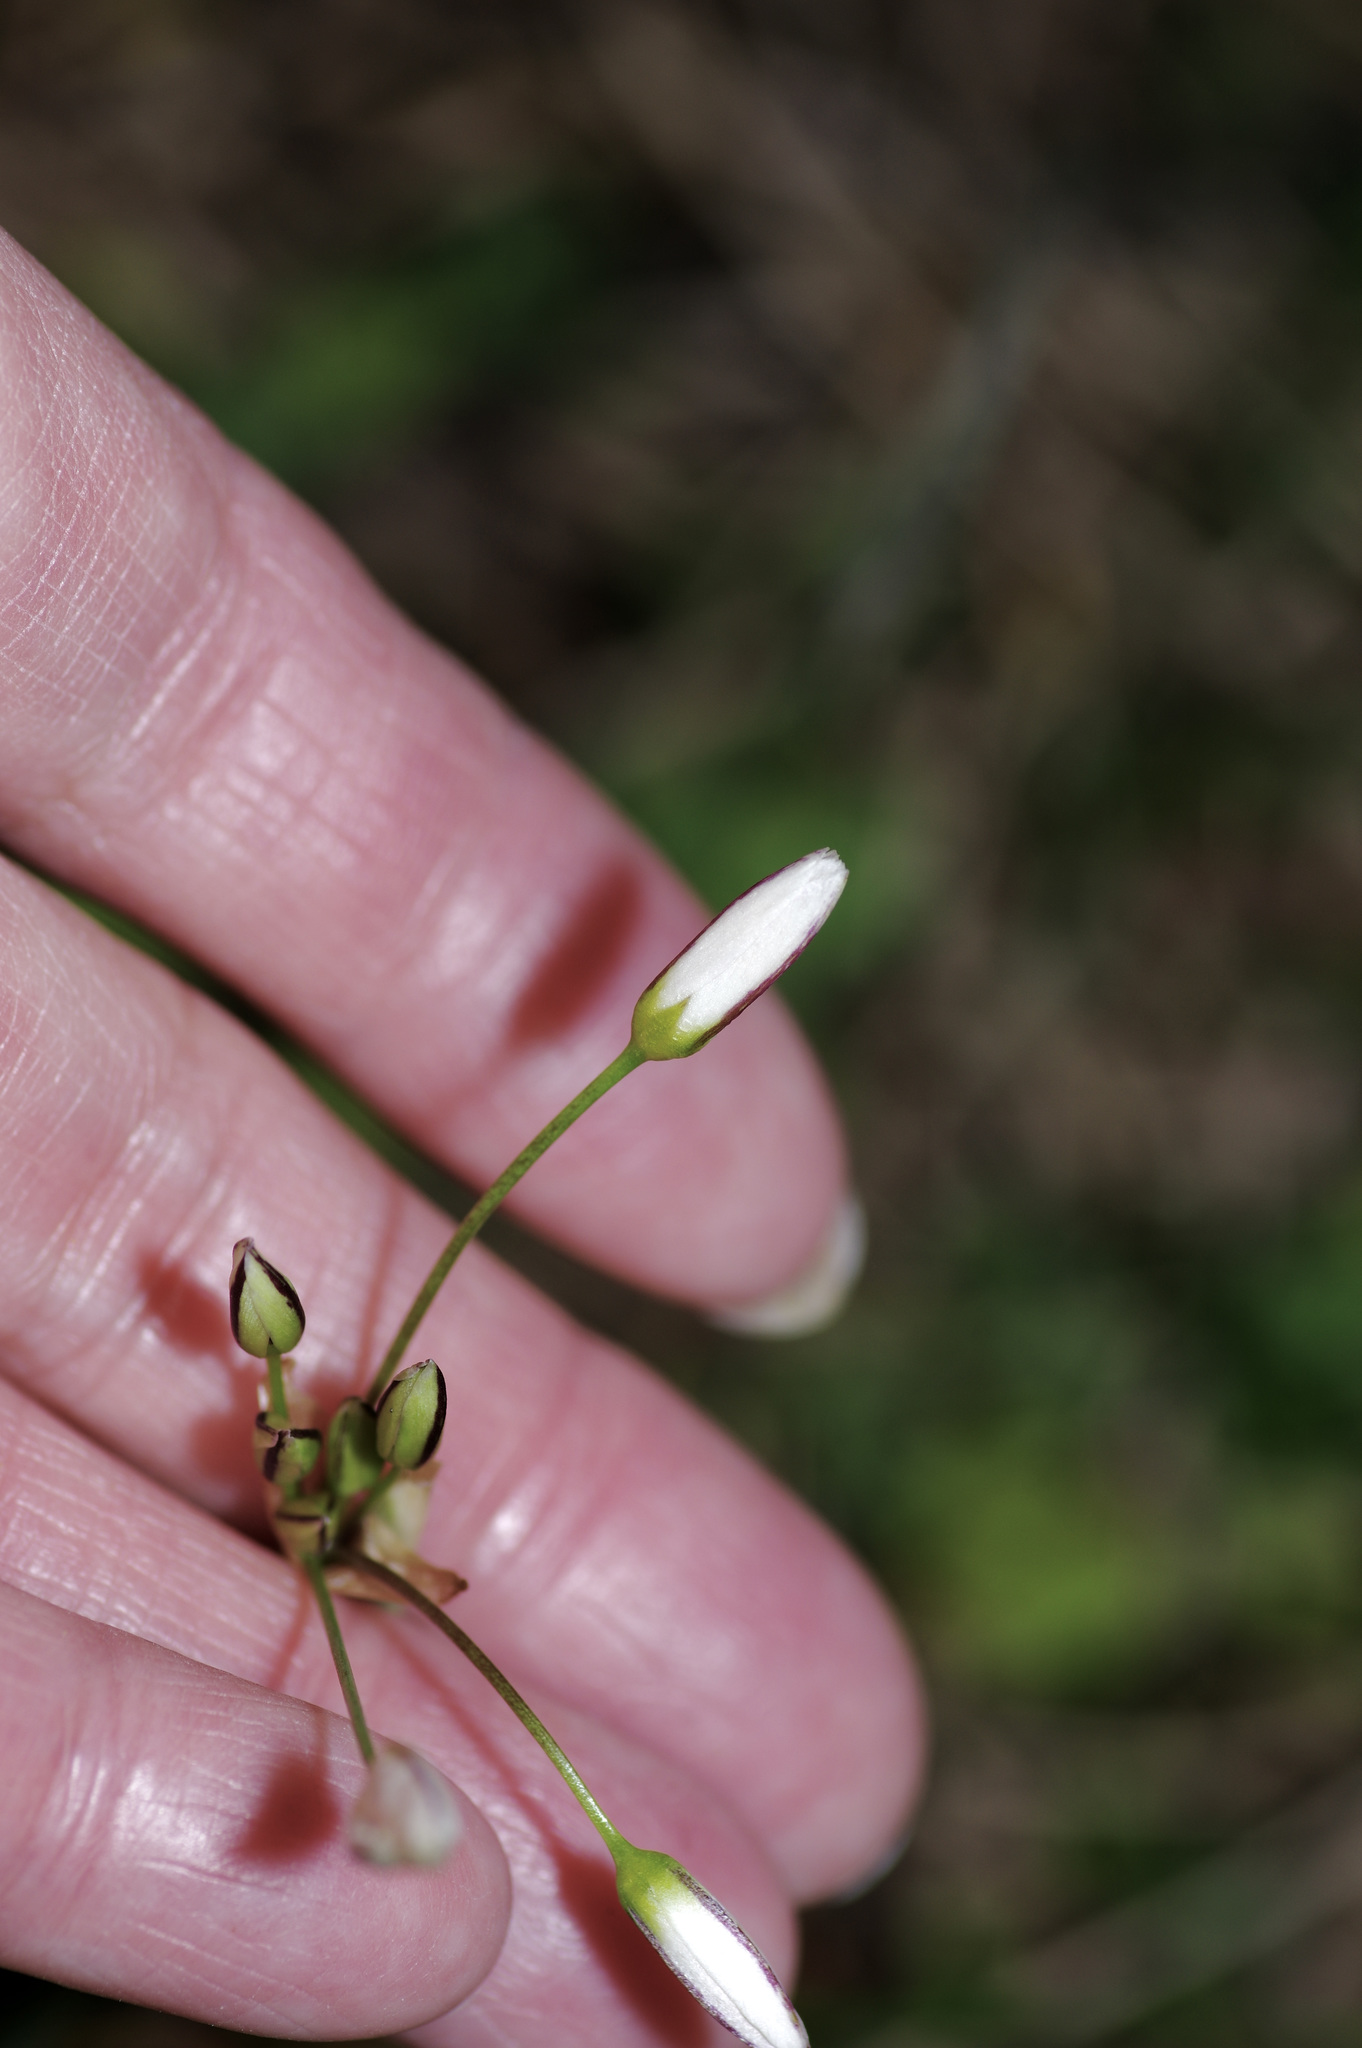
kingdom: Plantae
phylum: Tracheophyta
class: Liliopsida
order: Asparagales
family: Amaryllidaceae
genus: Nothoscordum
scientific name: Nothoscordum bivalve
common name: Crow-poison
